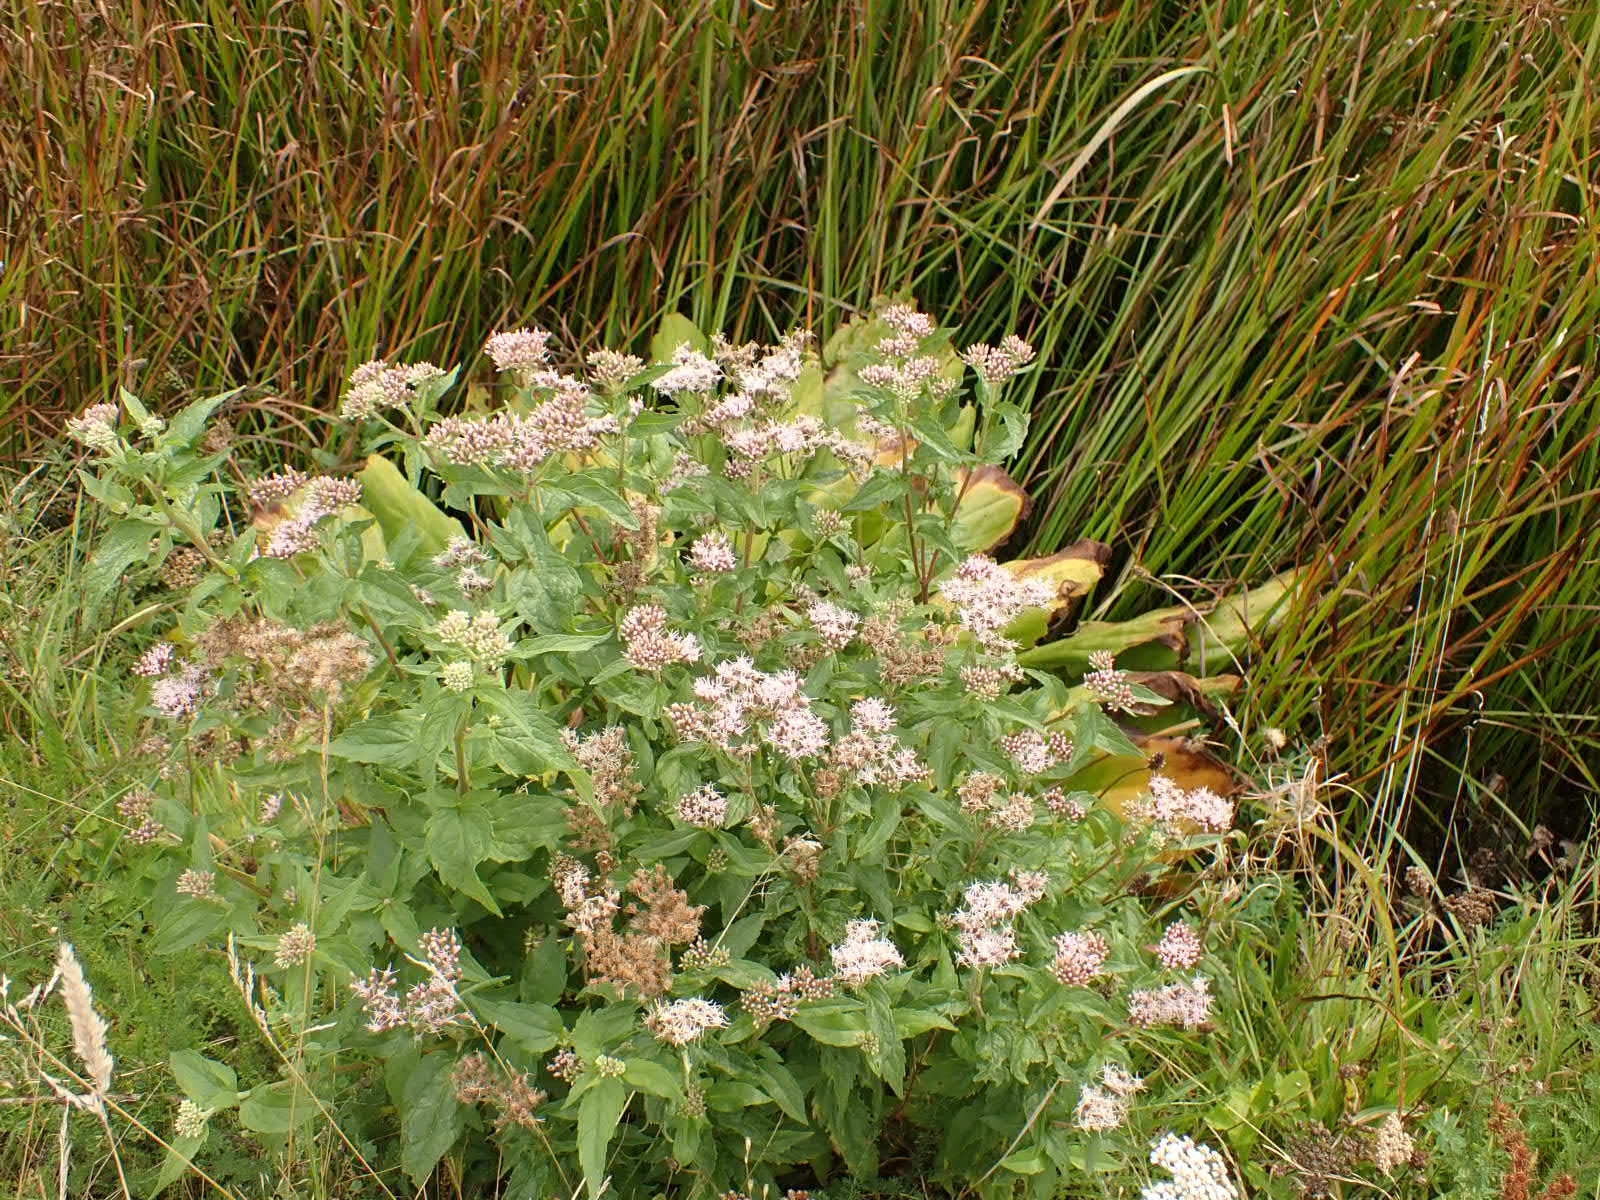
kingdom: Plantae
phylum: Tracheophyta
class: Magnoliopsida
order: Asterales
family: Asteraceae
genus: Eupatorium
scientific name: Eupatorium cannabinum
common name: Hemp-agrimony
